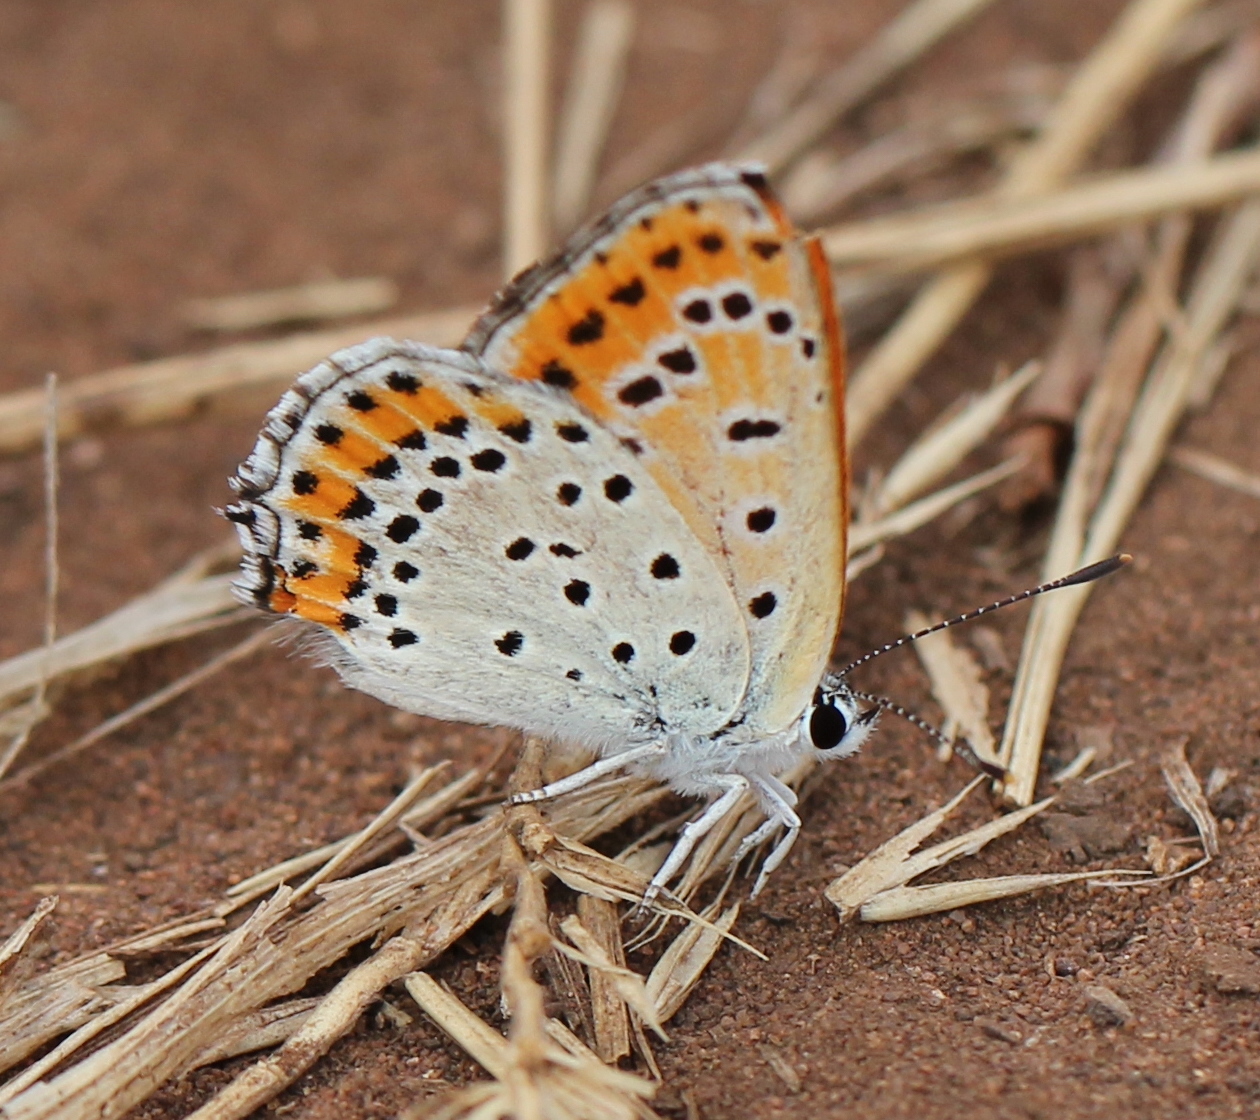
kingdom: Animalia
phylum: Arthropoda
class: Insecta
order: Lepidoptera
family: Lycaenidae
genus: Thersamonia
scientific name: Thersamonia thersamon
